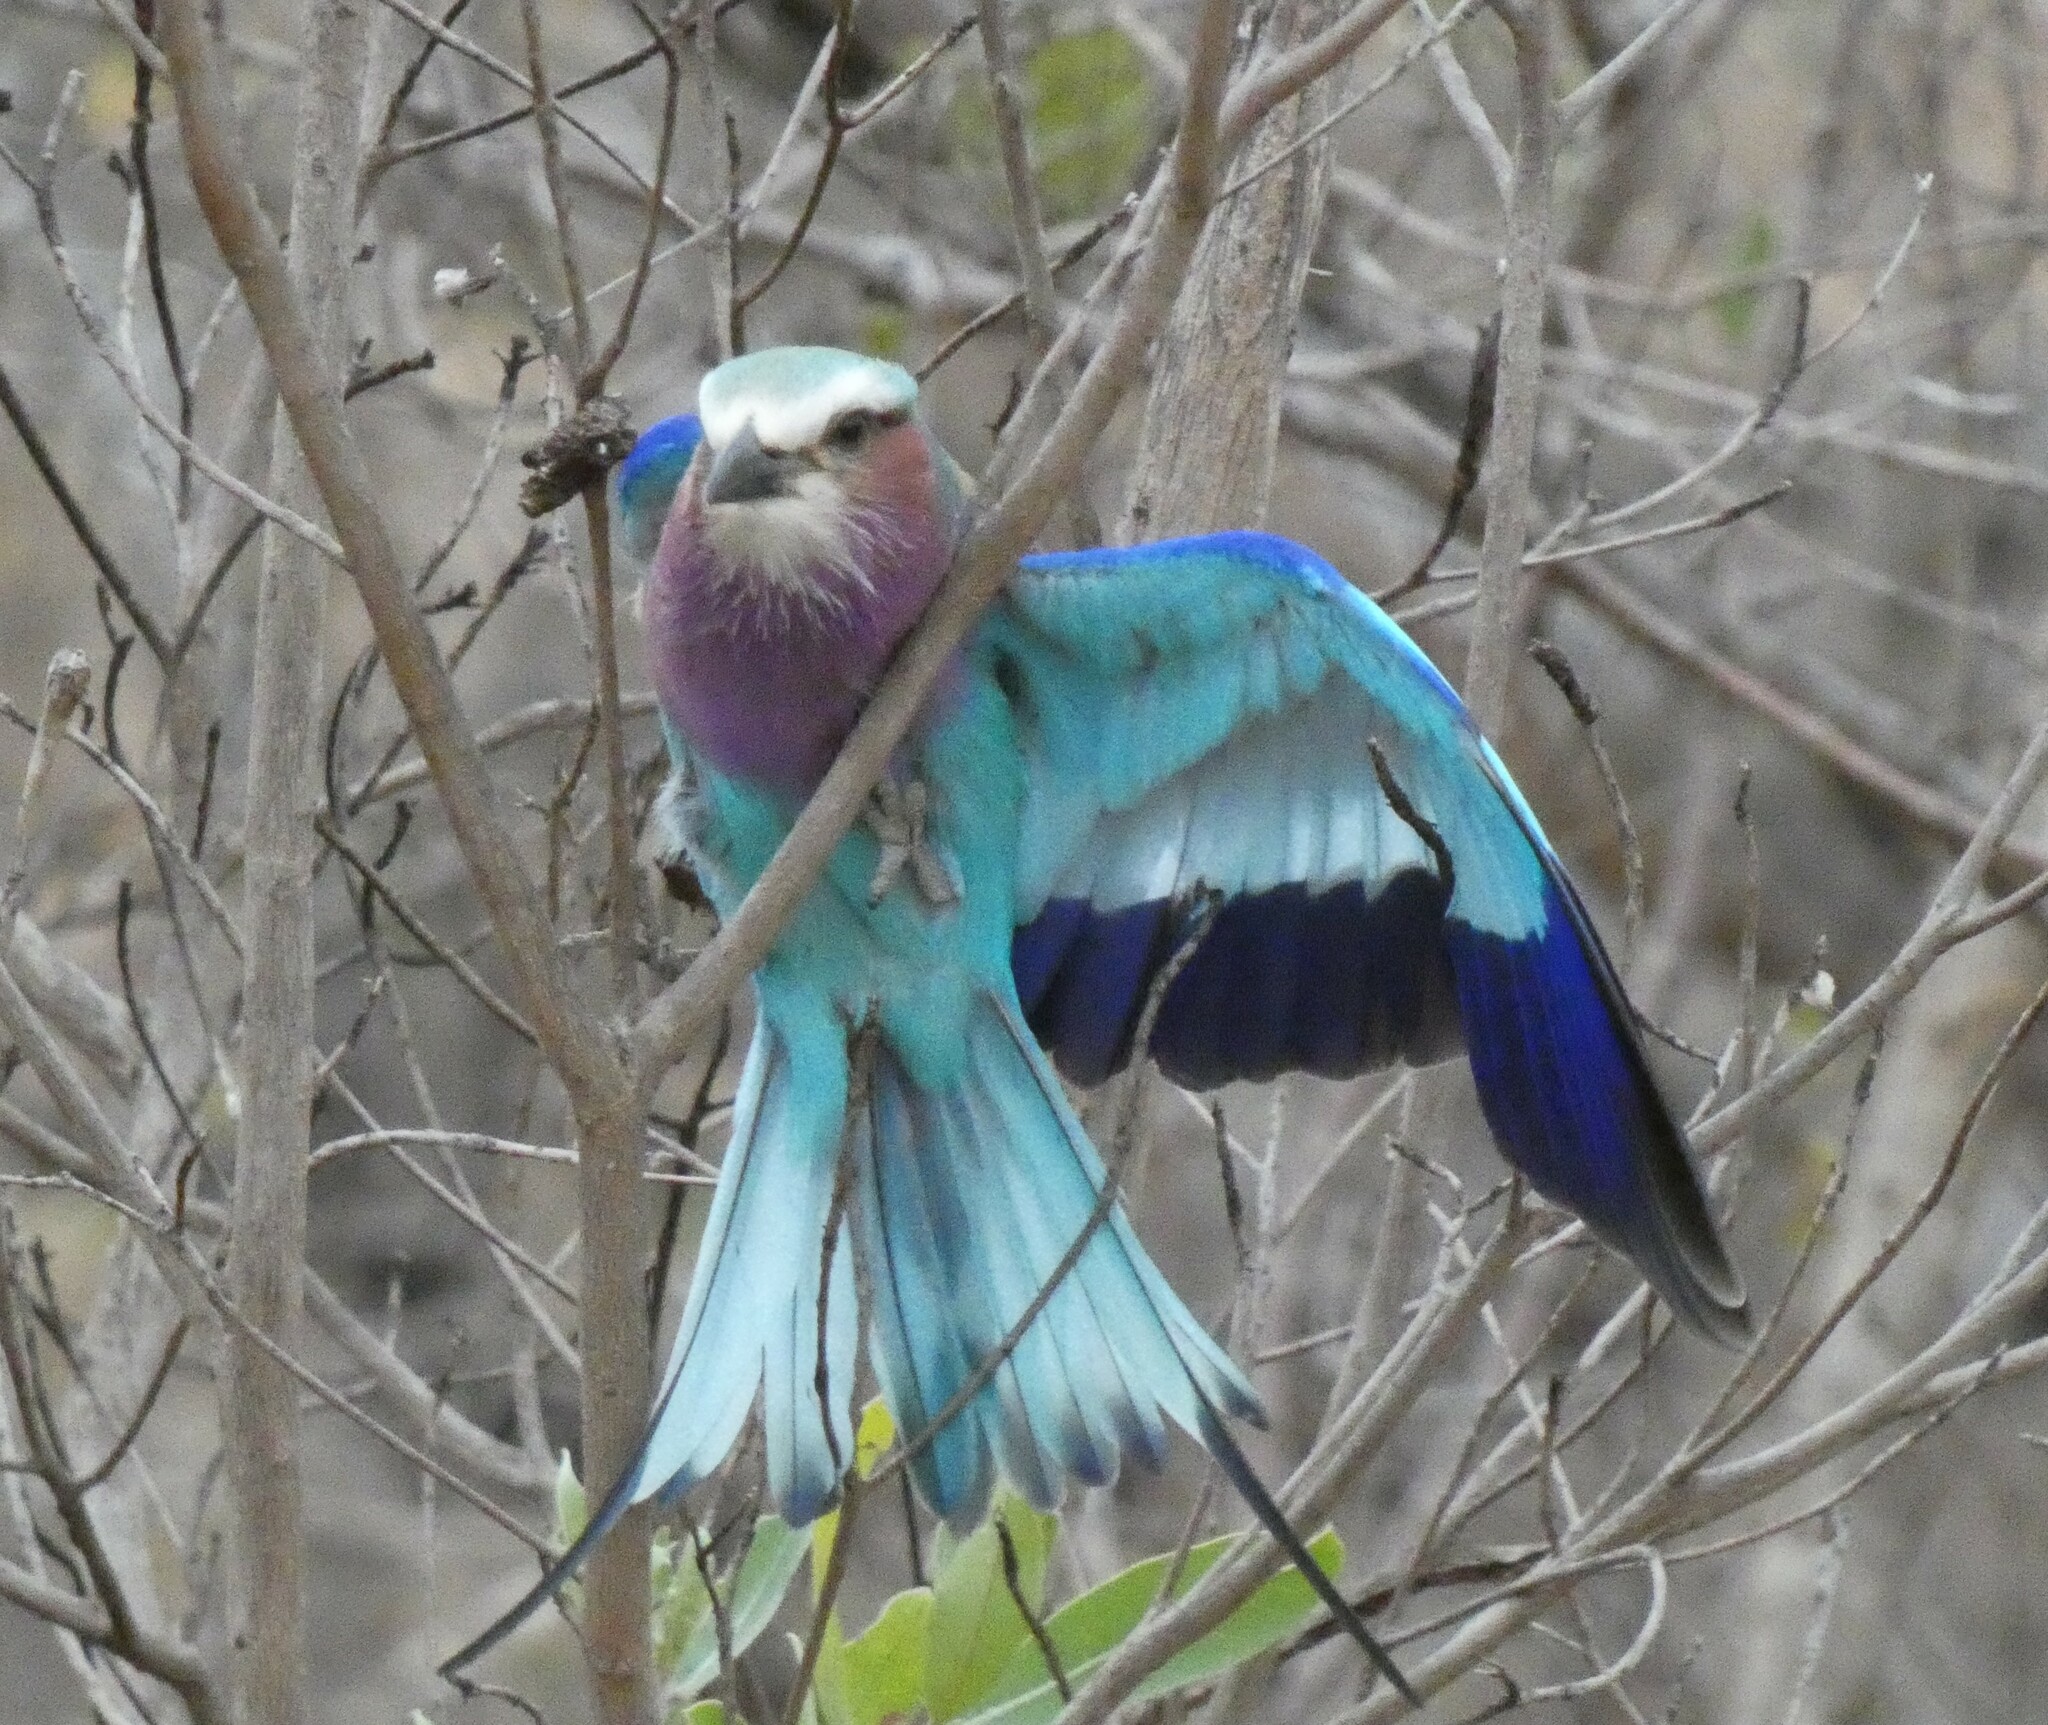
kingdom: Animalia
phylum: Chordata
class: Aves
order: Coraciiformes
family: Coraciidae
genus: Coracias
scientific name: Coracias caudatus
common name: Lilac-breasted roller
